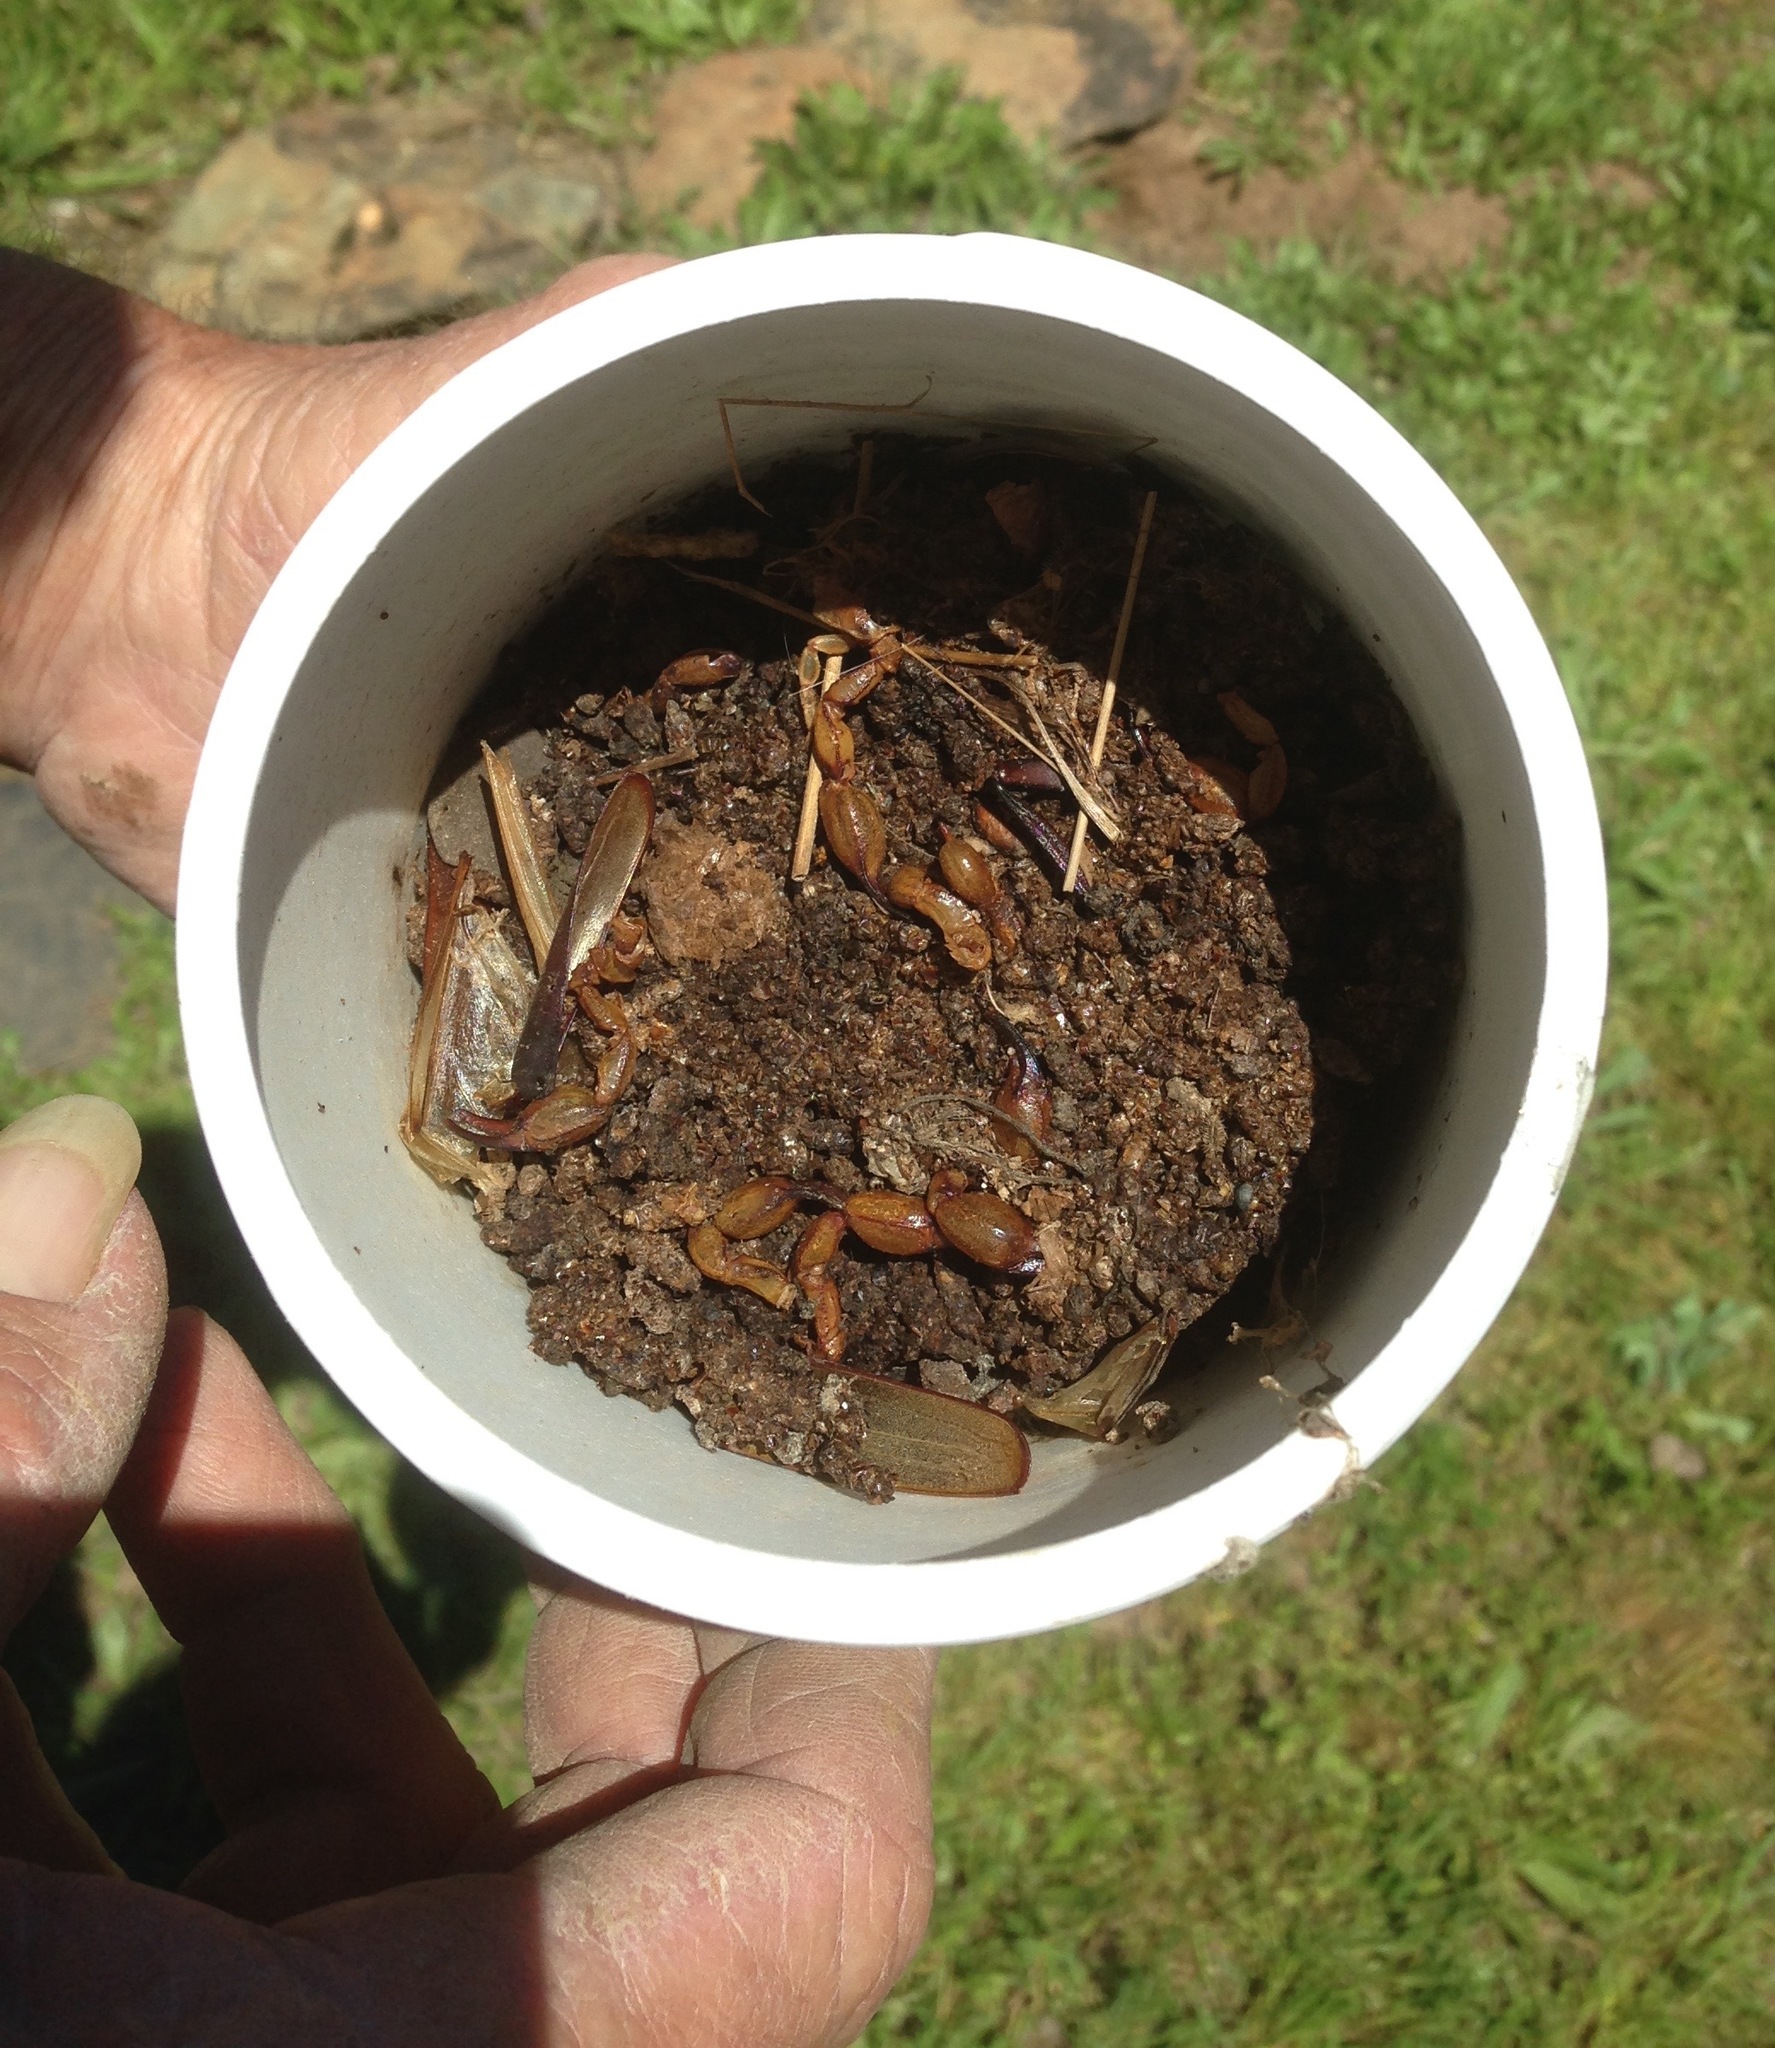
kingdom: Animalia
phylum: Arthropoda
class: Arachnida
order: Scorpiones
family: Chactidae
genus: Anuroctonus
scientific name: Anuroctonus pococki
